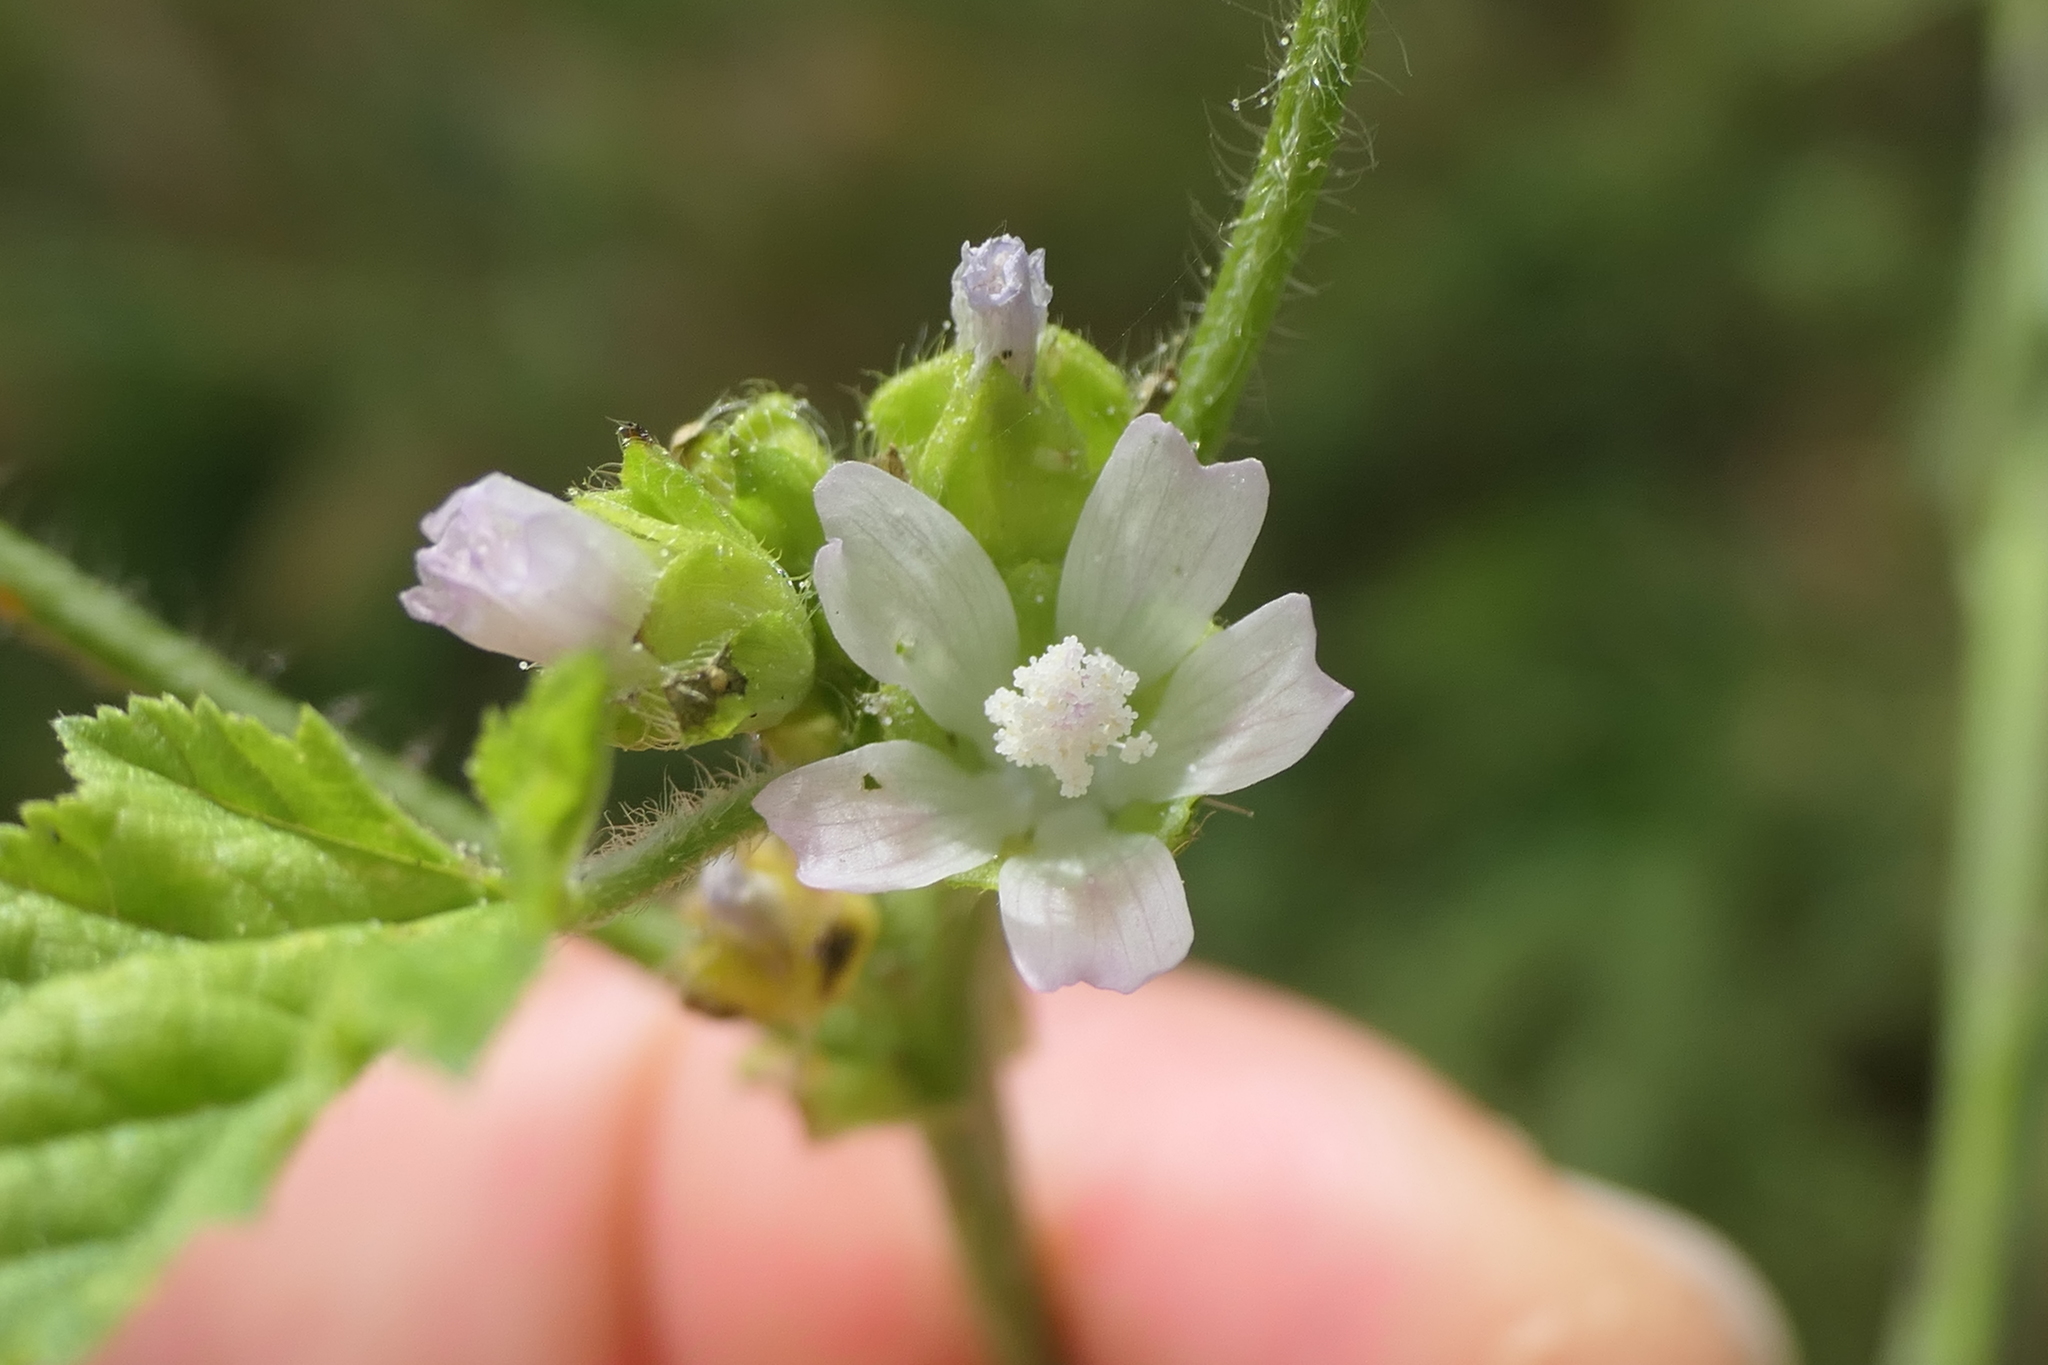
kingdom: Plantae
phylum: Tracheophyta
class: Magnoliopsida
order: Malvales
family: Malvaceae
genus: Malva
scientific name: Malva neglecta
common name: Common mallow
